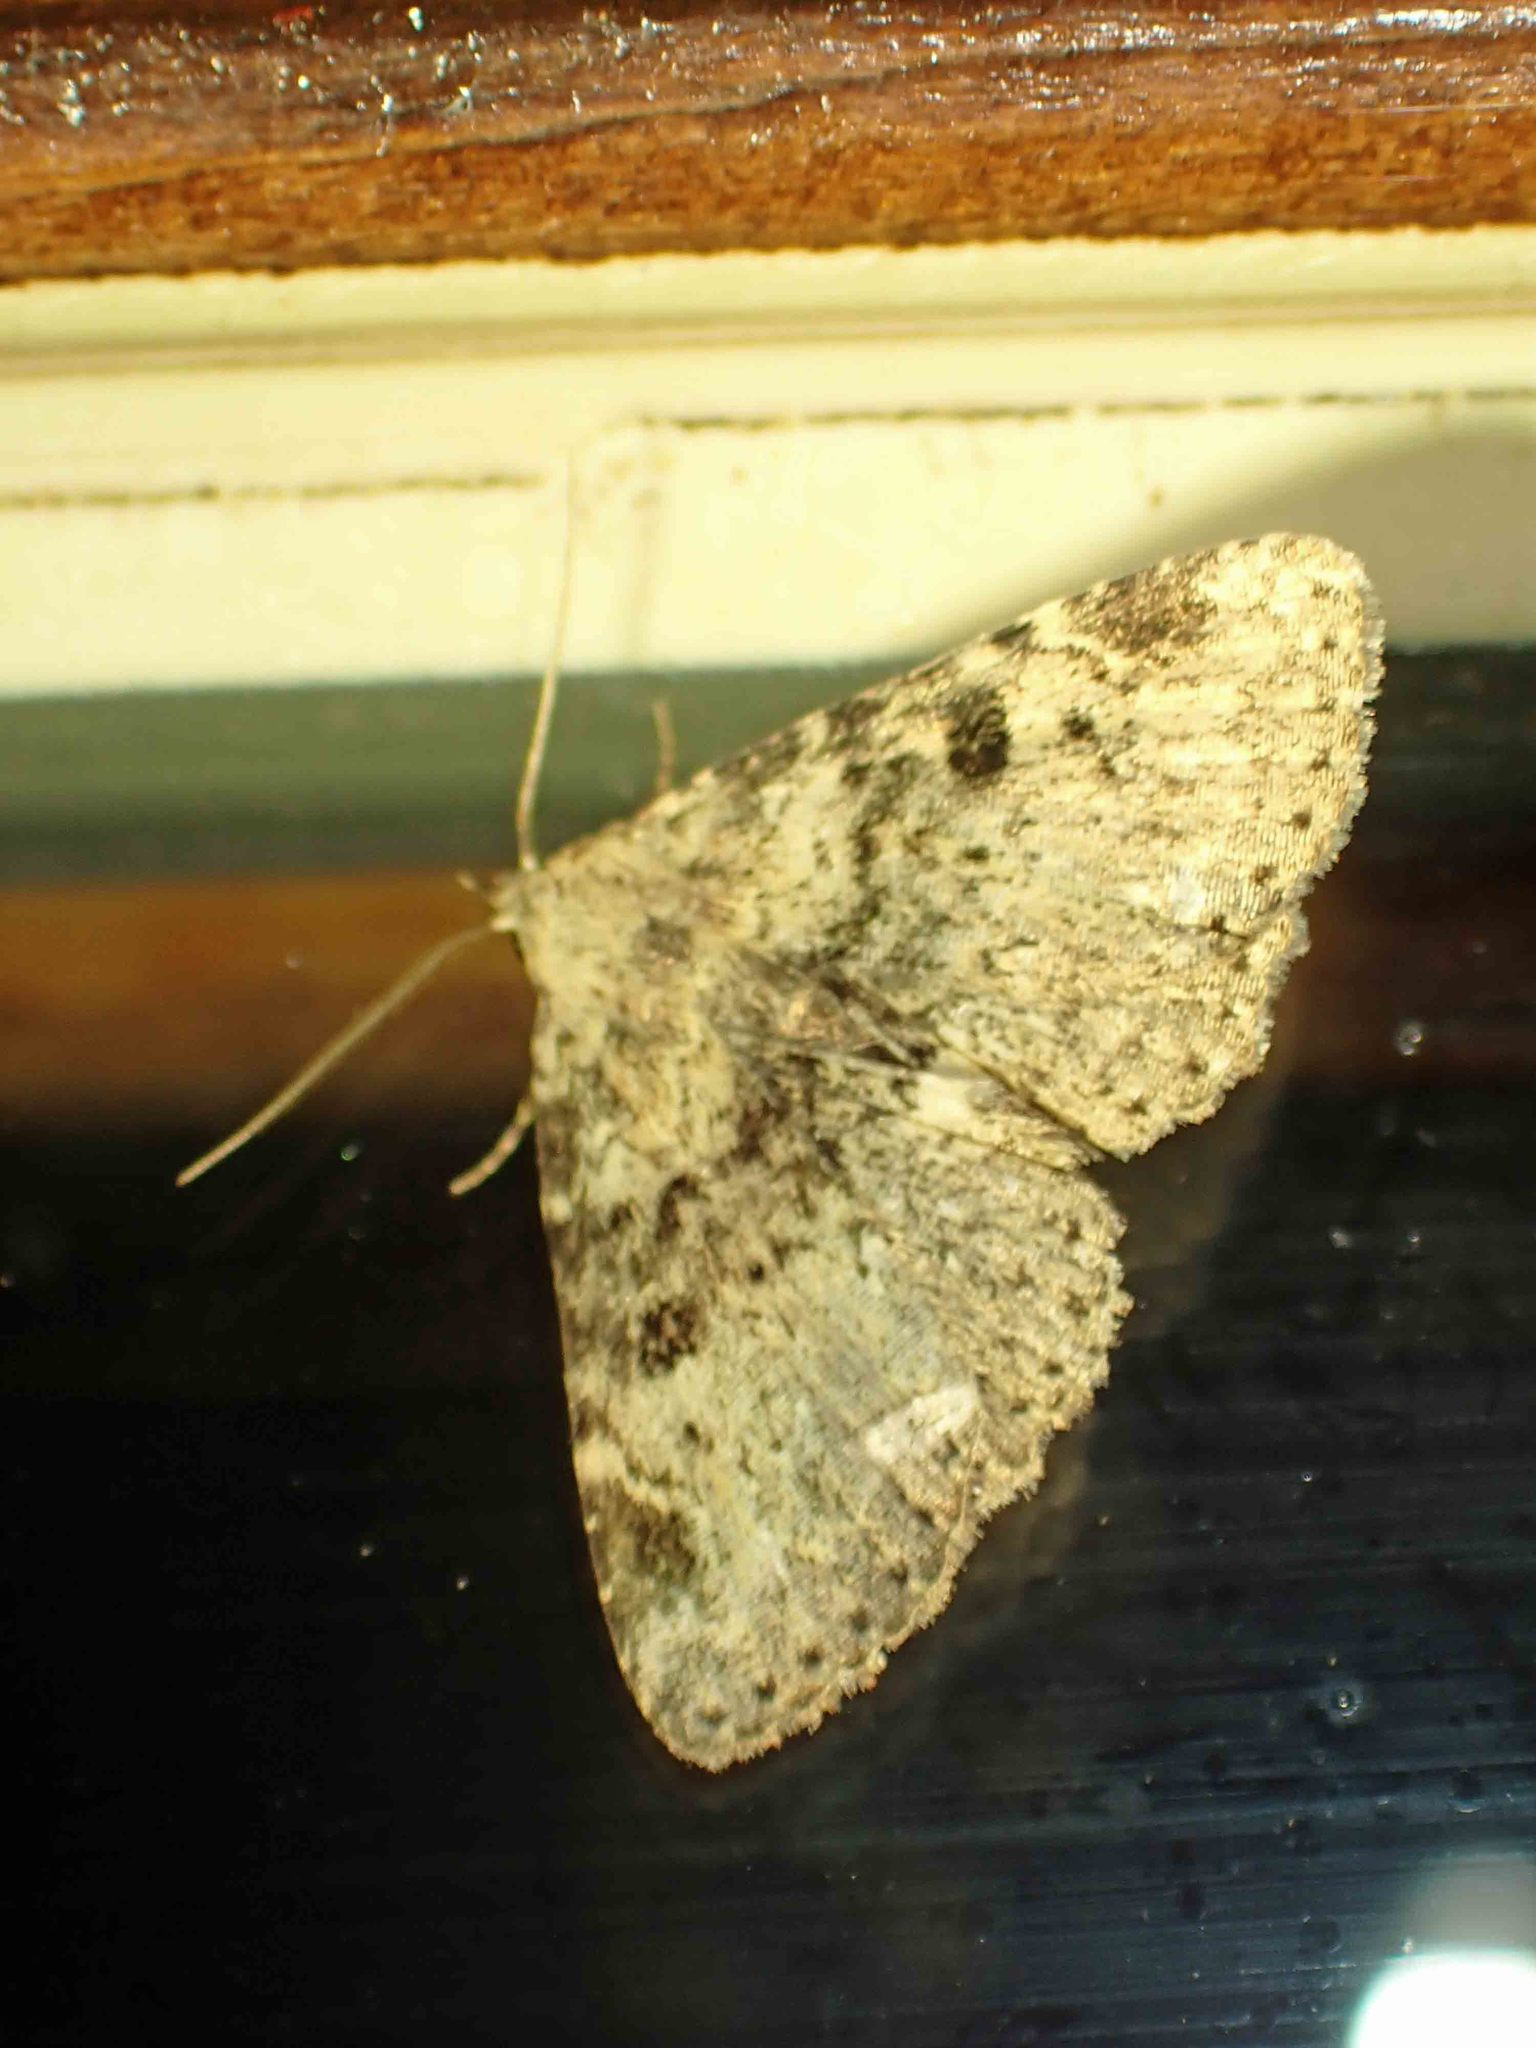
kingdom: Animalia
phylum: Arthropoda
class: Insecta
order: Lepidoptera
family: Erebidae
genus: Metalectra
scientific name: Metalectra quadrisignata
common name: Four-spotted fungus moth
